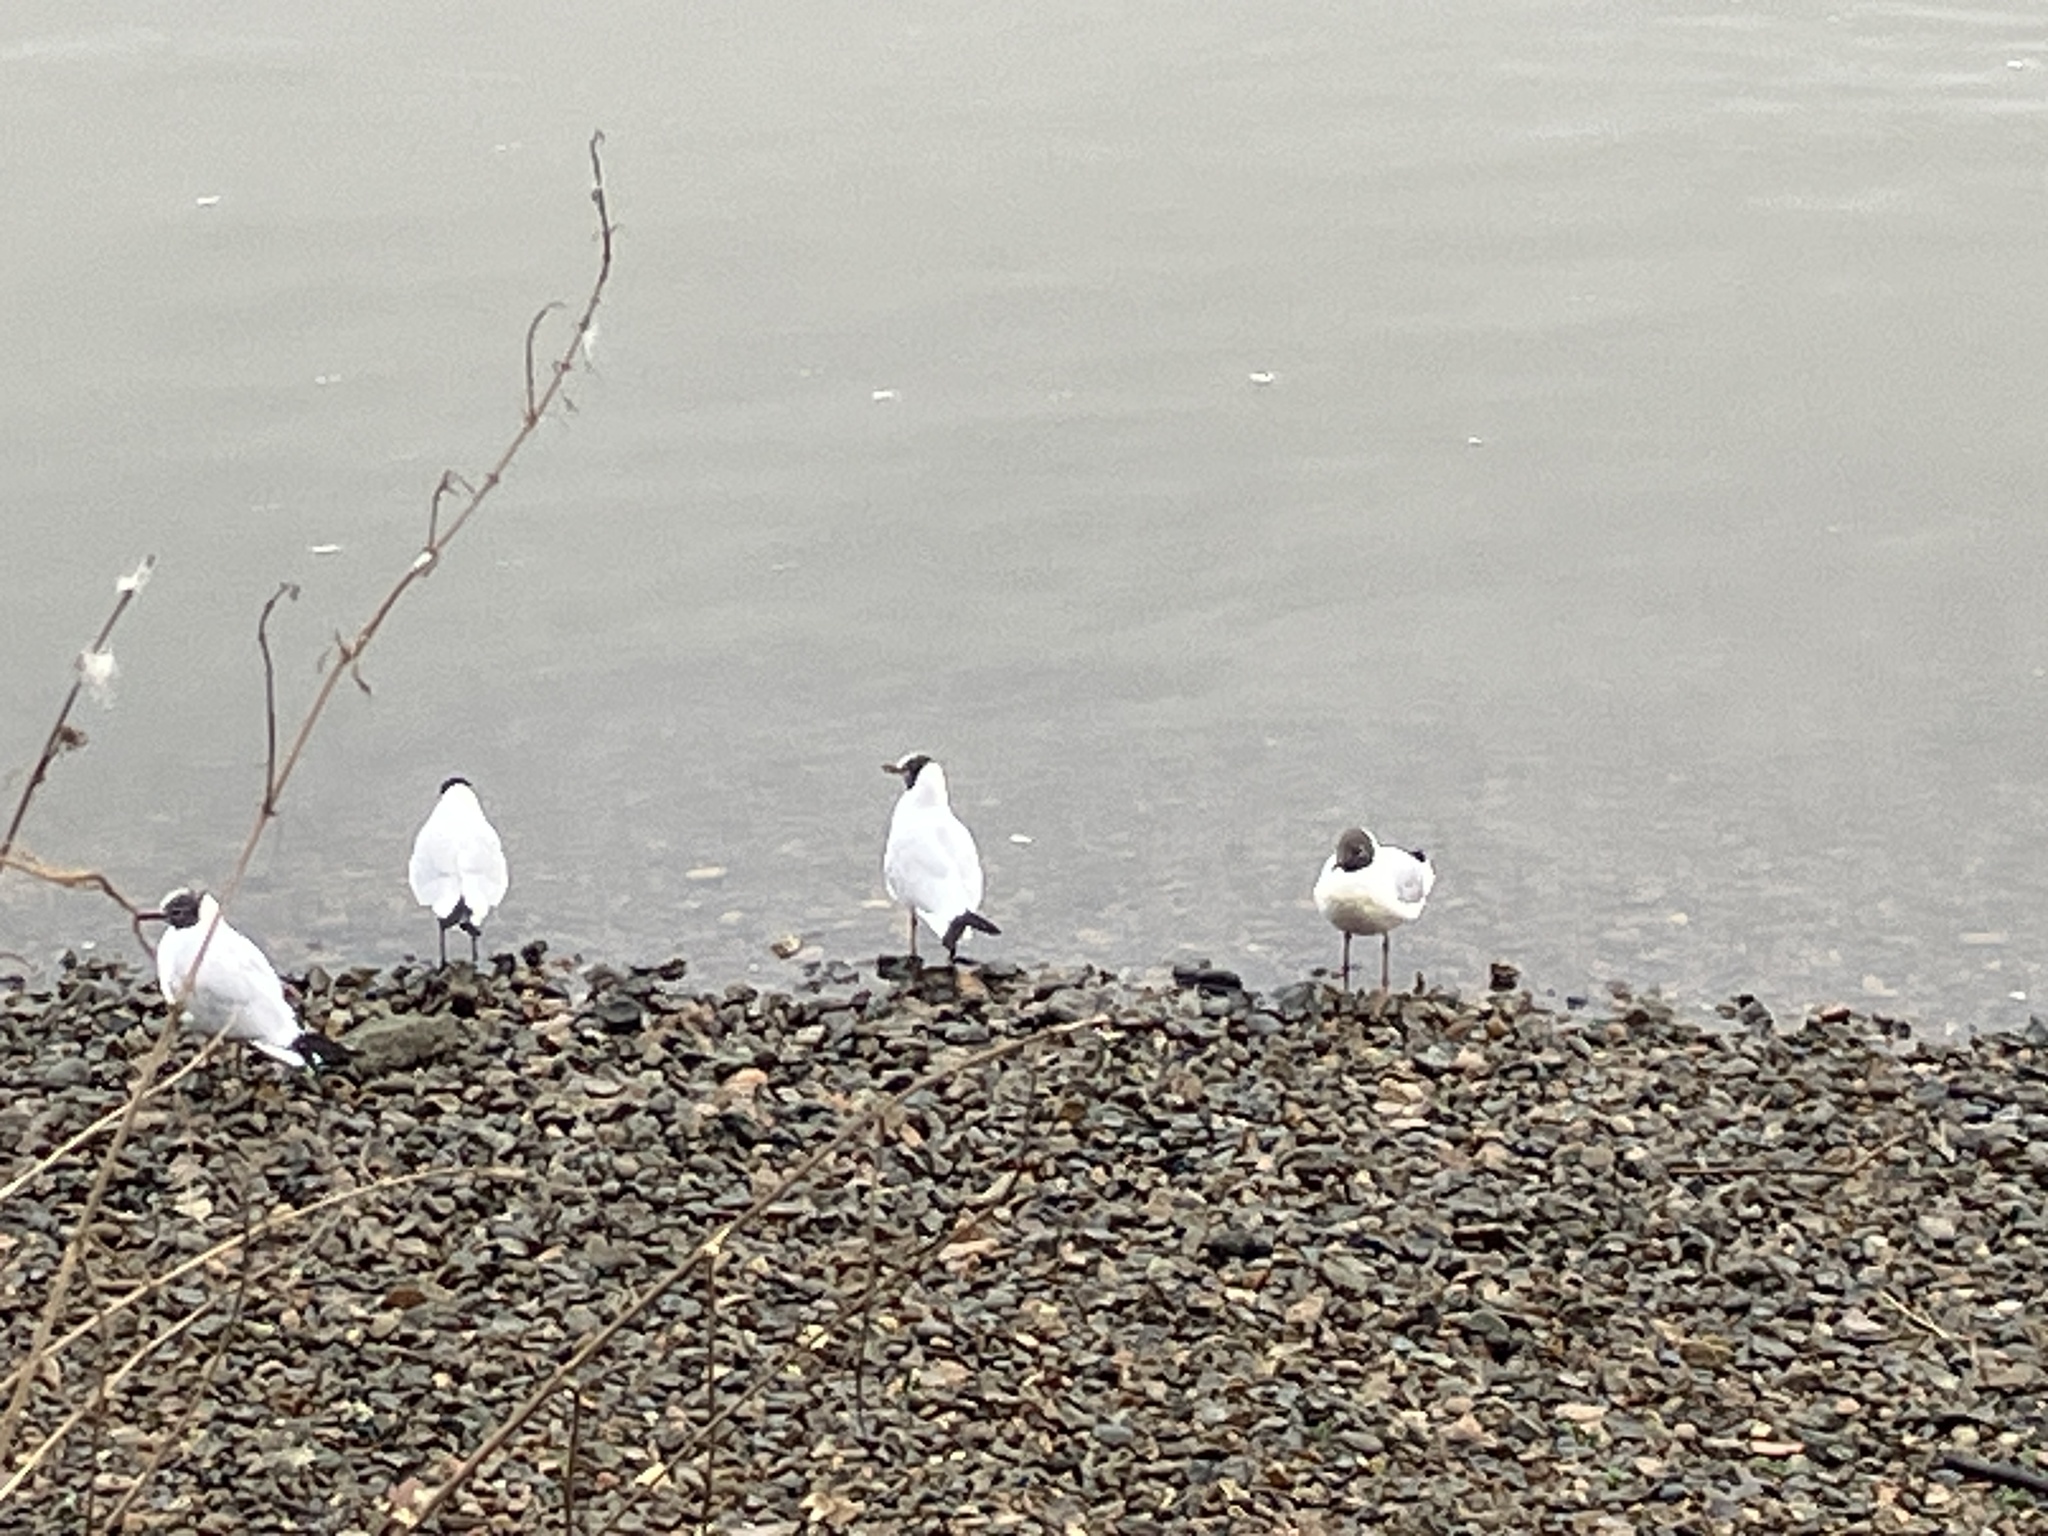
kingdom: Animalia
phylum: Chordata
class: Aves
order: Charadriiformes
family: Laridae
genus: Chroicocephalus
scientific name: Chroicocephalus ridibundus
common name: Black-headed gull
